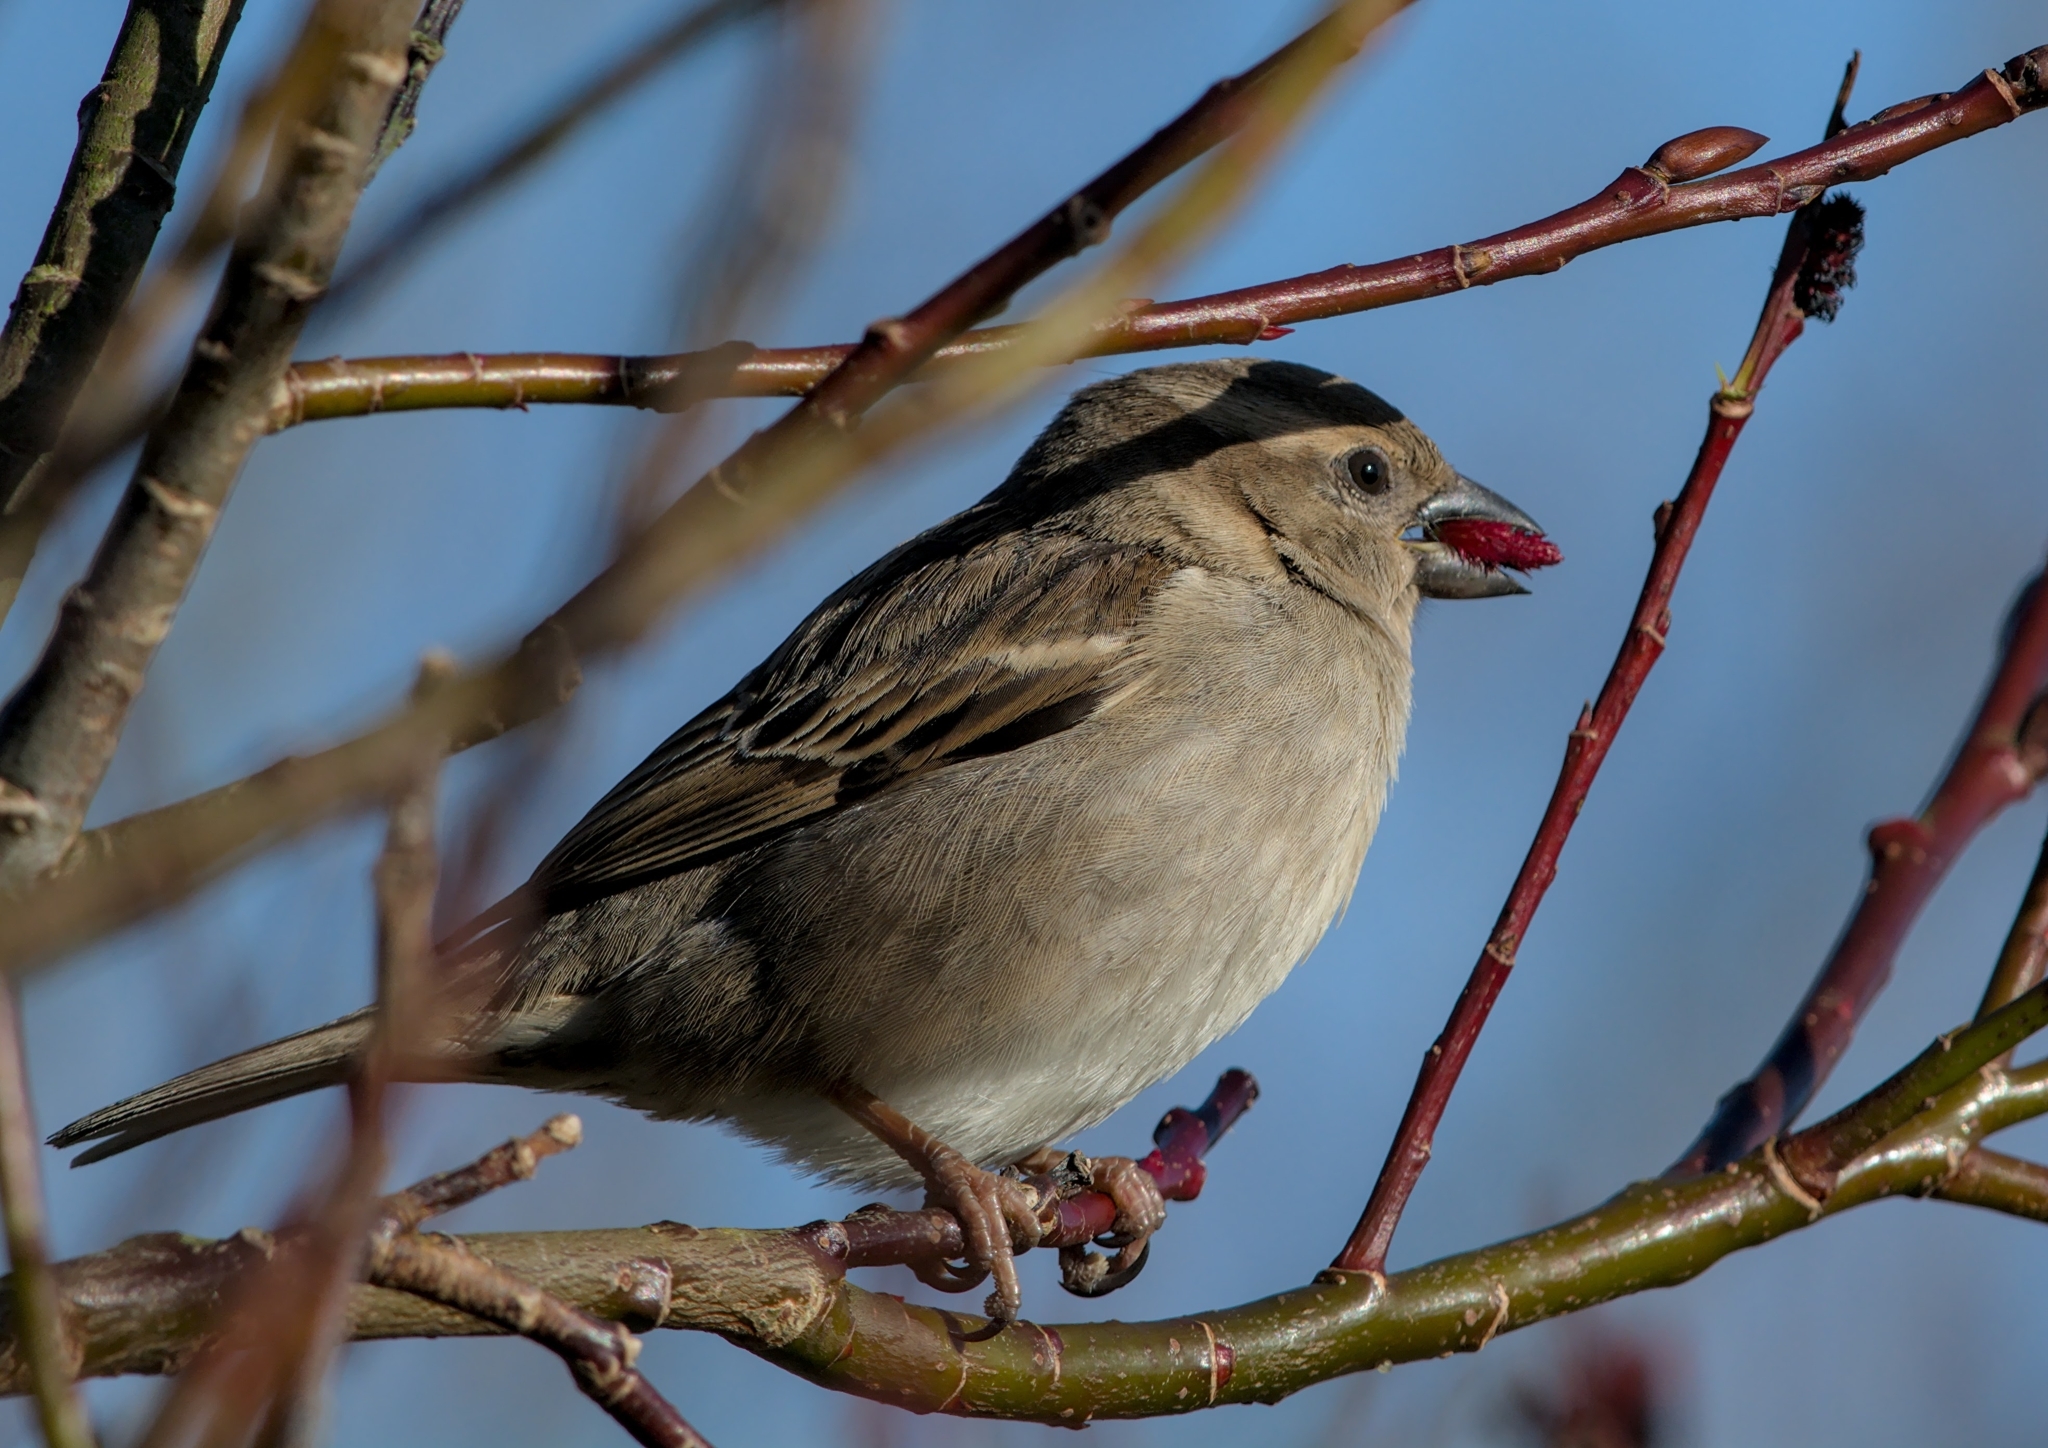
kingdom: Animalia
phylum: Chordata
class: Aves
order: Passeriformes
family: Passeridae
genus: Passer
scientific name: Passer domesticus
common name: House sparrow
